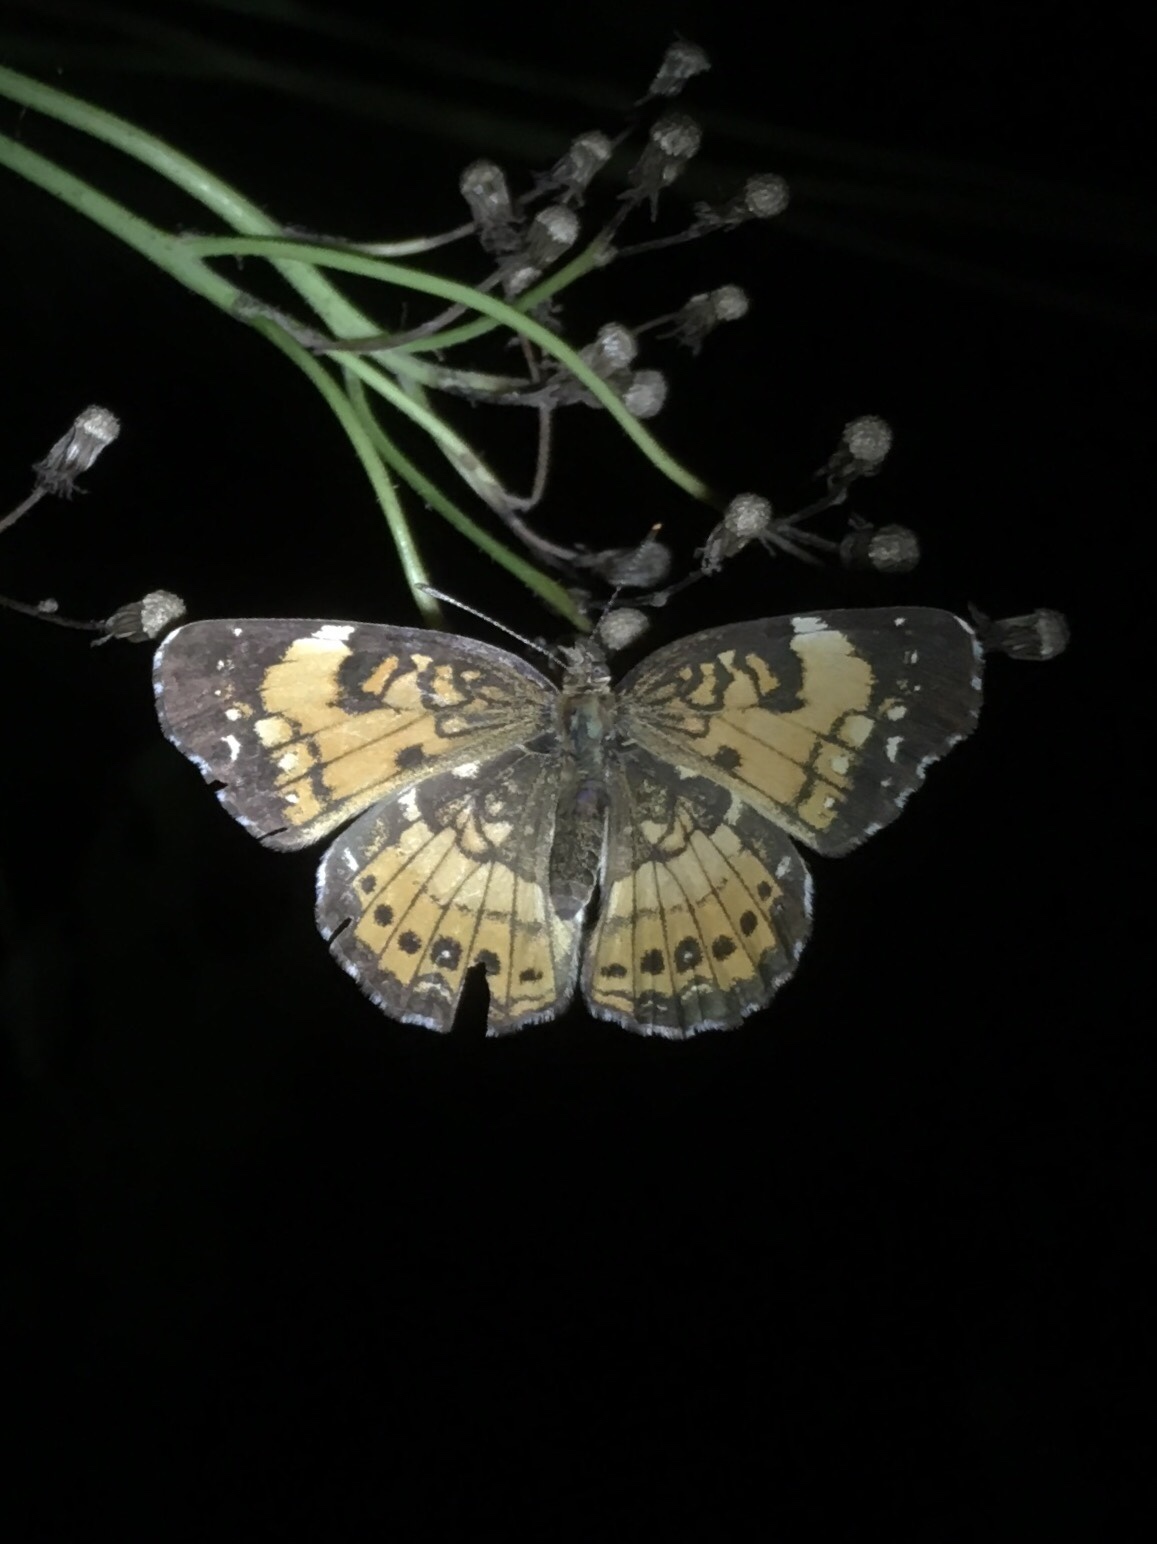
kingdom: Animalia
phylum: Arthropoda
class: Insecta
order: Lepidoptera
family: Nymphalidae
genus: Chlosyne
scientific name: Chlosyne nycteis
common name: Silvery checkerspot
